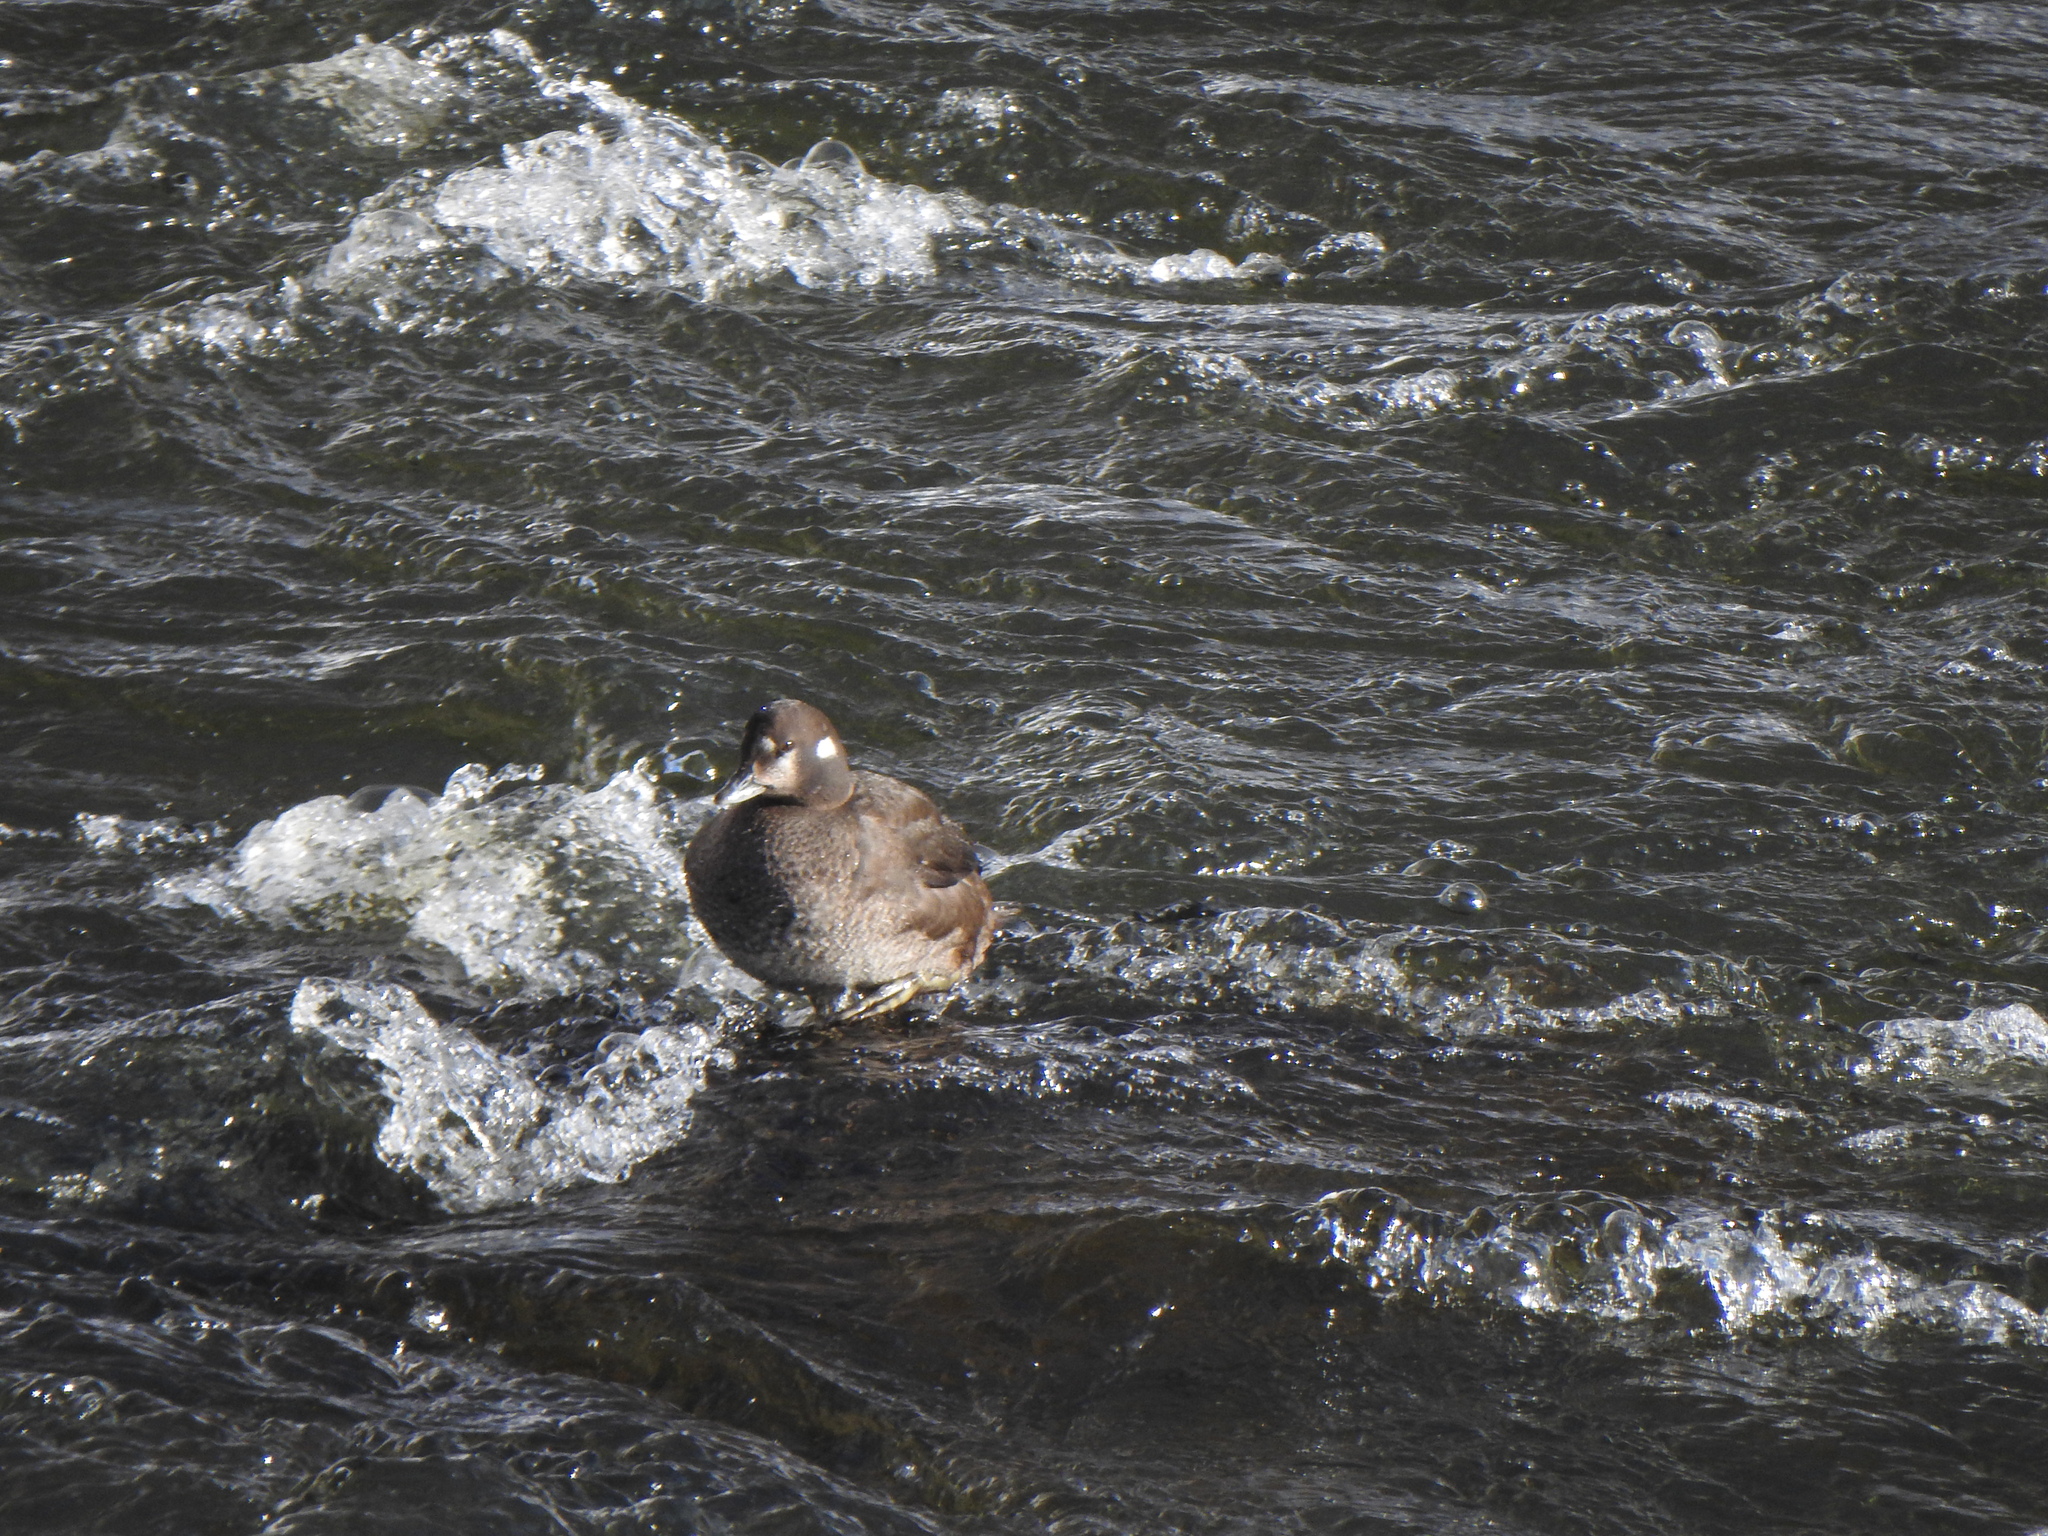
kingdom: Animalia
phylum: Chordata
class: Aves
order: Anseriformes
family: Anatidae
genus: Histrionicus
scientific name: Histrionicus histrionicus
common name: Harlequin duck
